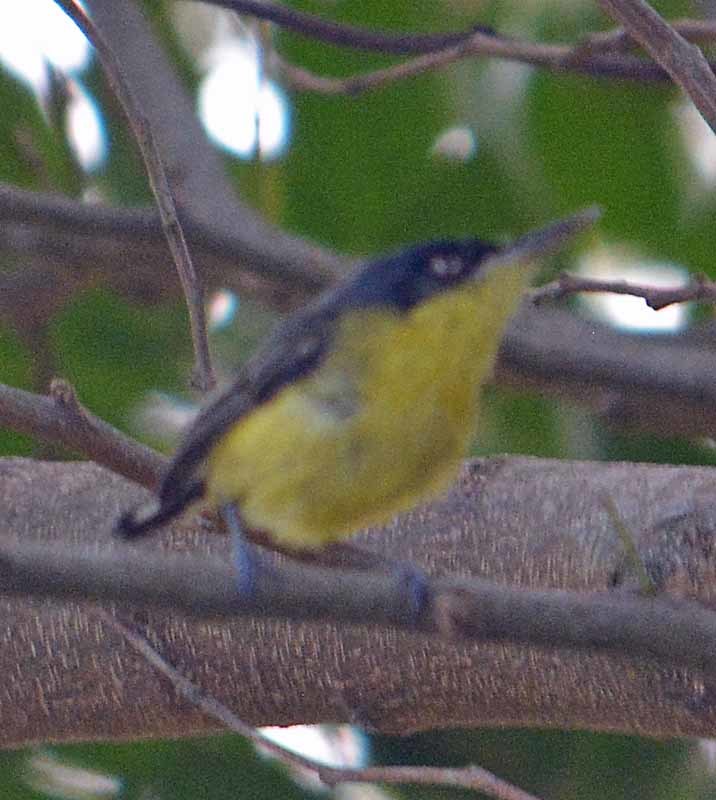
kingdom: Animalia
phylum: Chordata
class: Aves
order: Passeriformes
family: Tyrannidae
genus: Todirostrum
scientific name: Todirostrum cinereum
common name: Common tody-flycatcher
